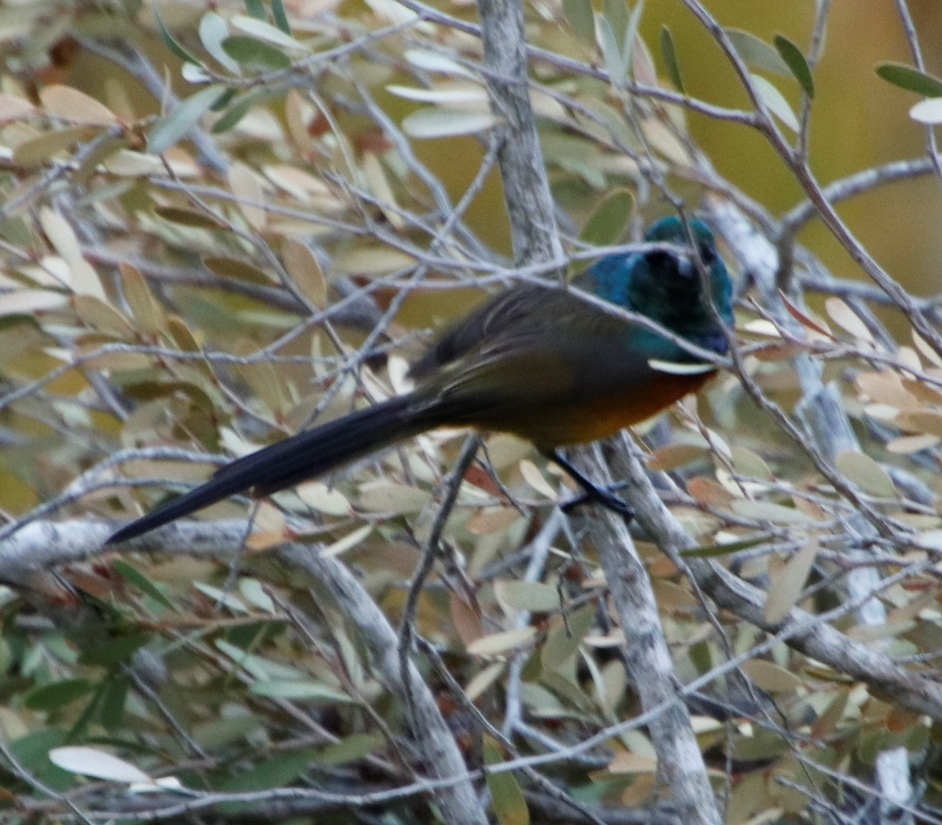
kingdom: Animalia
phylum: Chordata
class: Aves
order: Passeriformes
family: Nectariniidae
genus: Anthobaphes
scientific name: Anthobaphes violacea
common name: Orange-breasted sunbird
